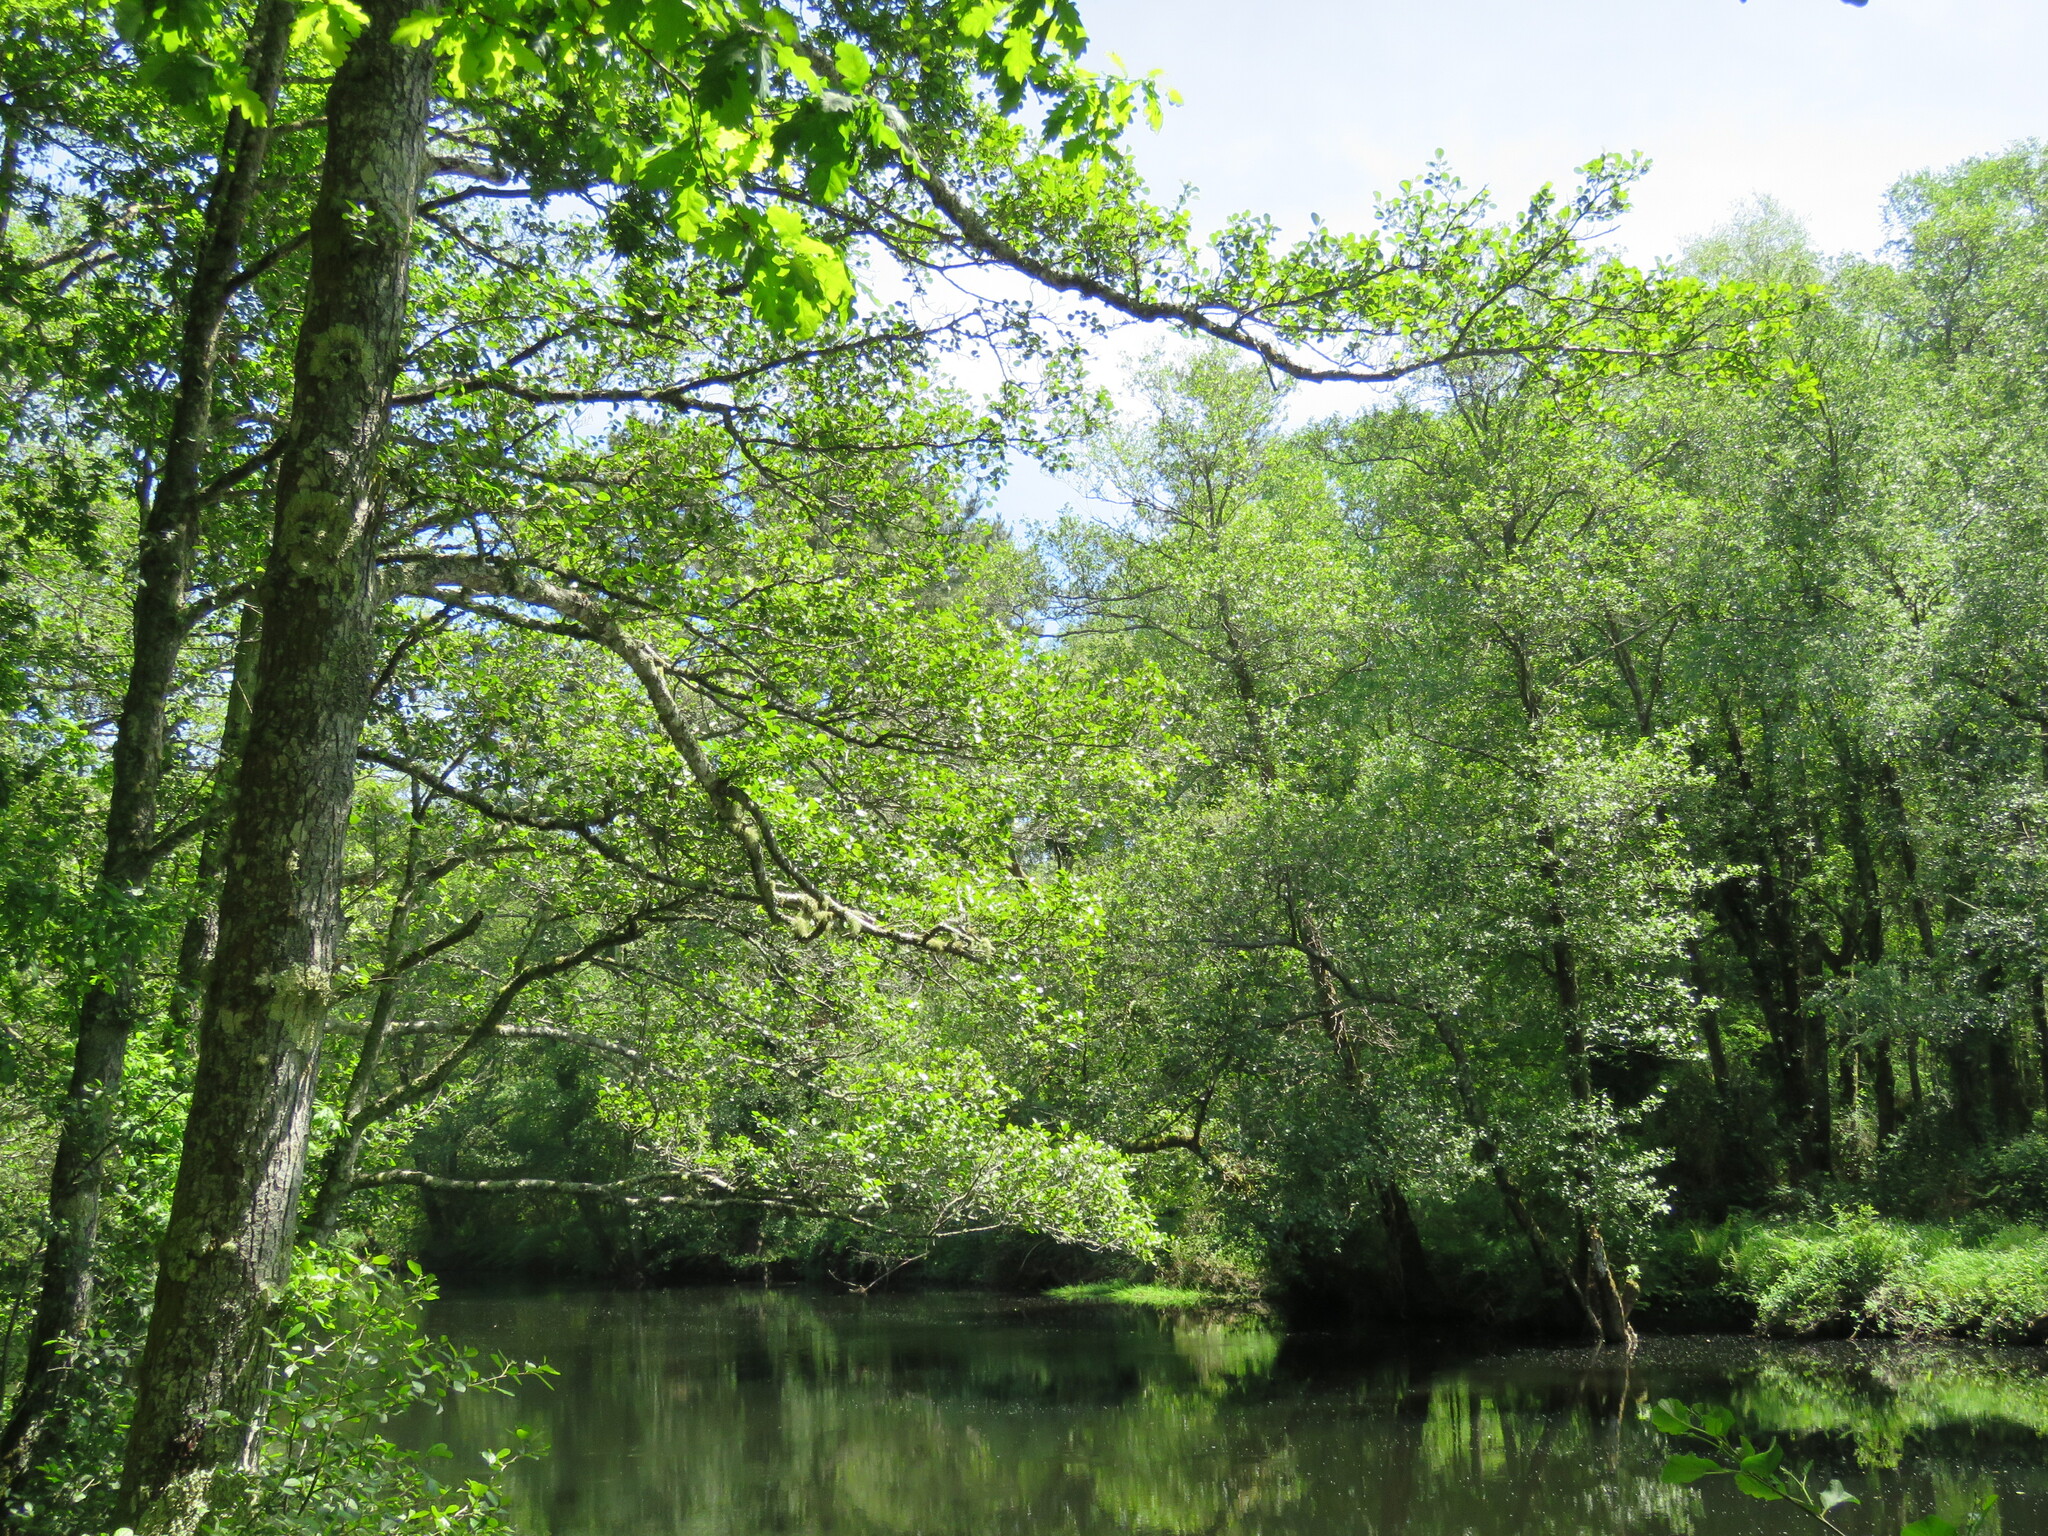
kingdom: Plantae
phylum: Tracheophyta
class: Magnoliopsida
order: Fagales
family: Betulaceae
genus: Alnus
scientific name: Alnus lusitanica
